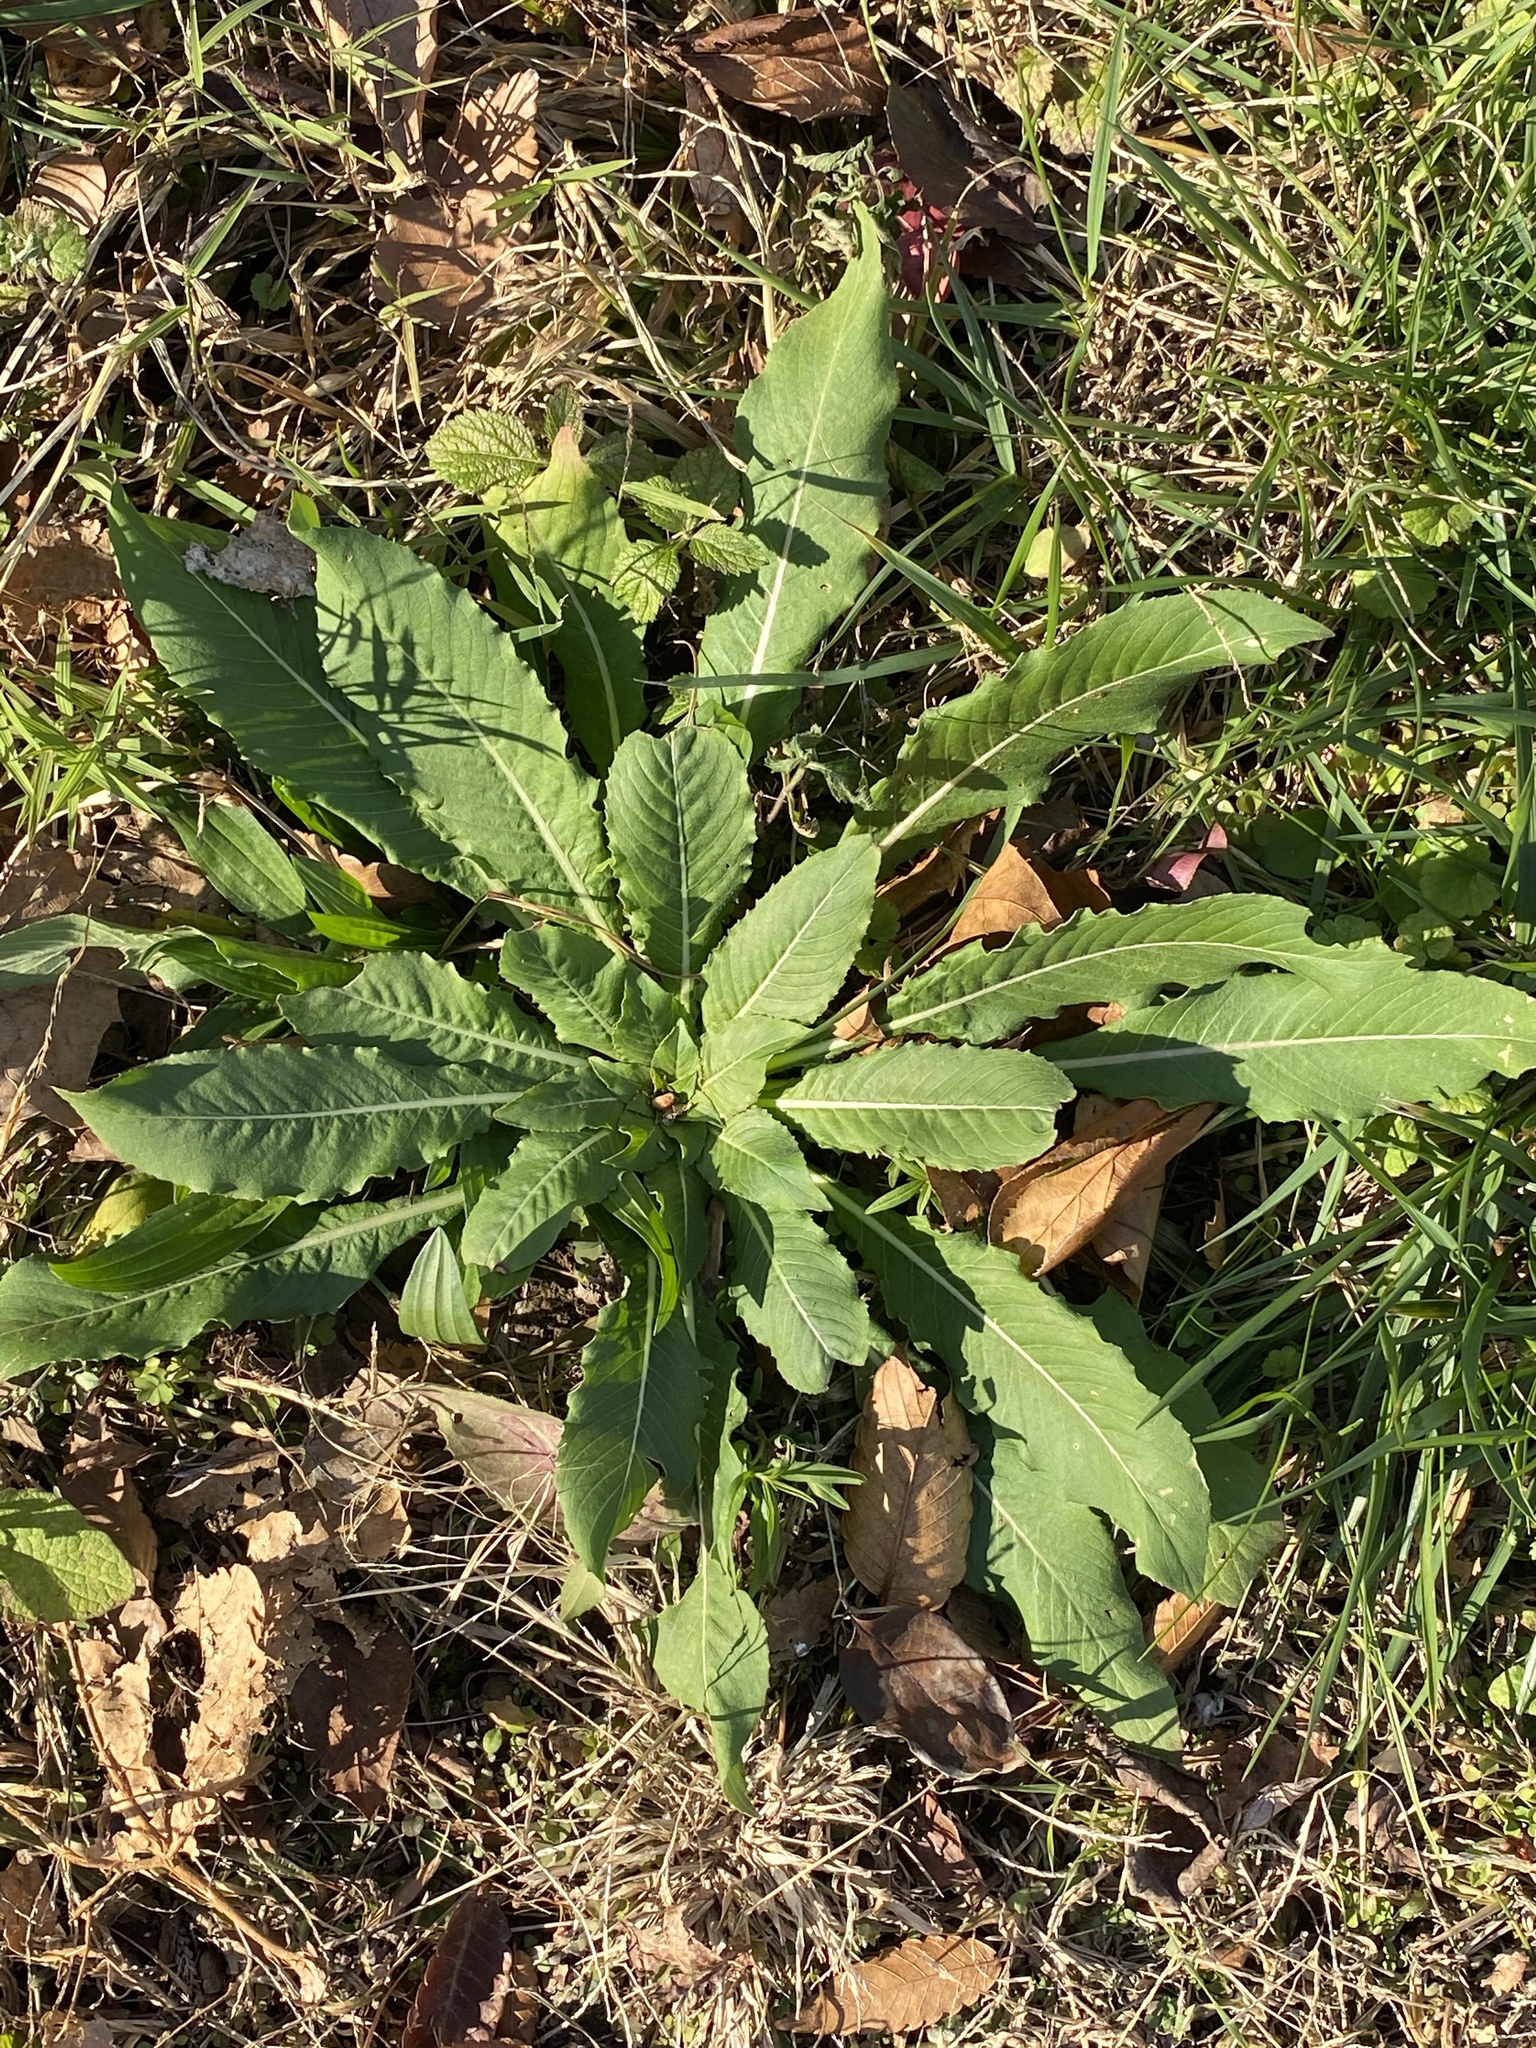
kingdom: Plantae
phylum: Tracheophyta
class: Magnoliopsida
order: Myrtales
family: Onagraceae
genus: Oenothera
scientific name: Oenothera biennis
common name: Common evening-primrose
